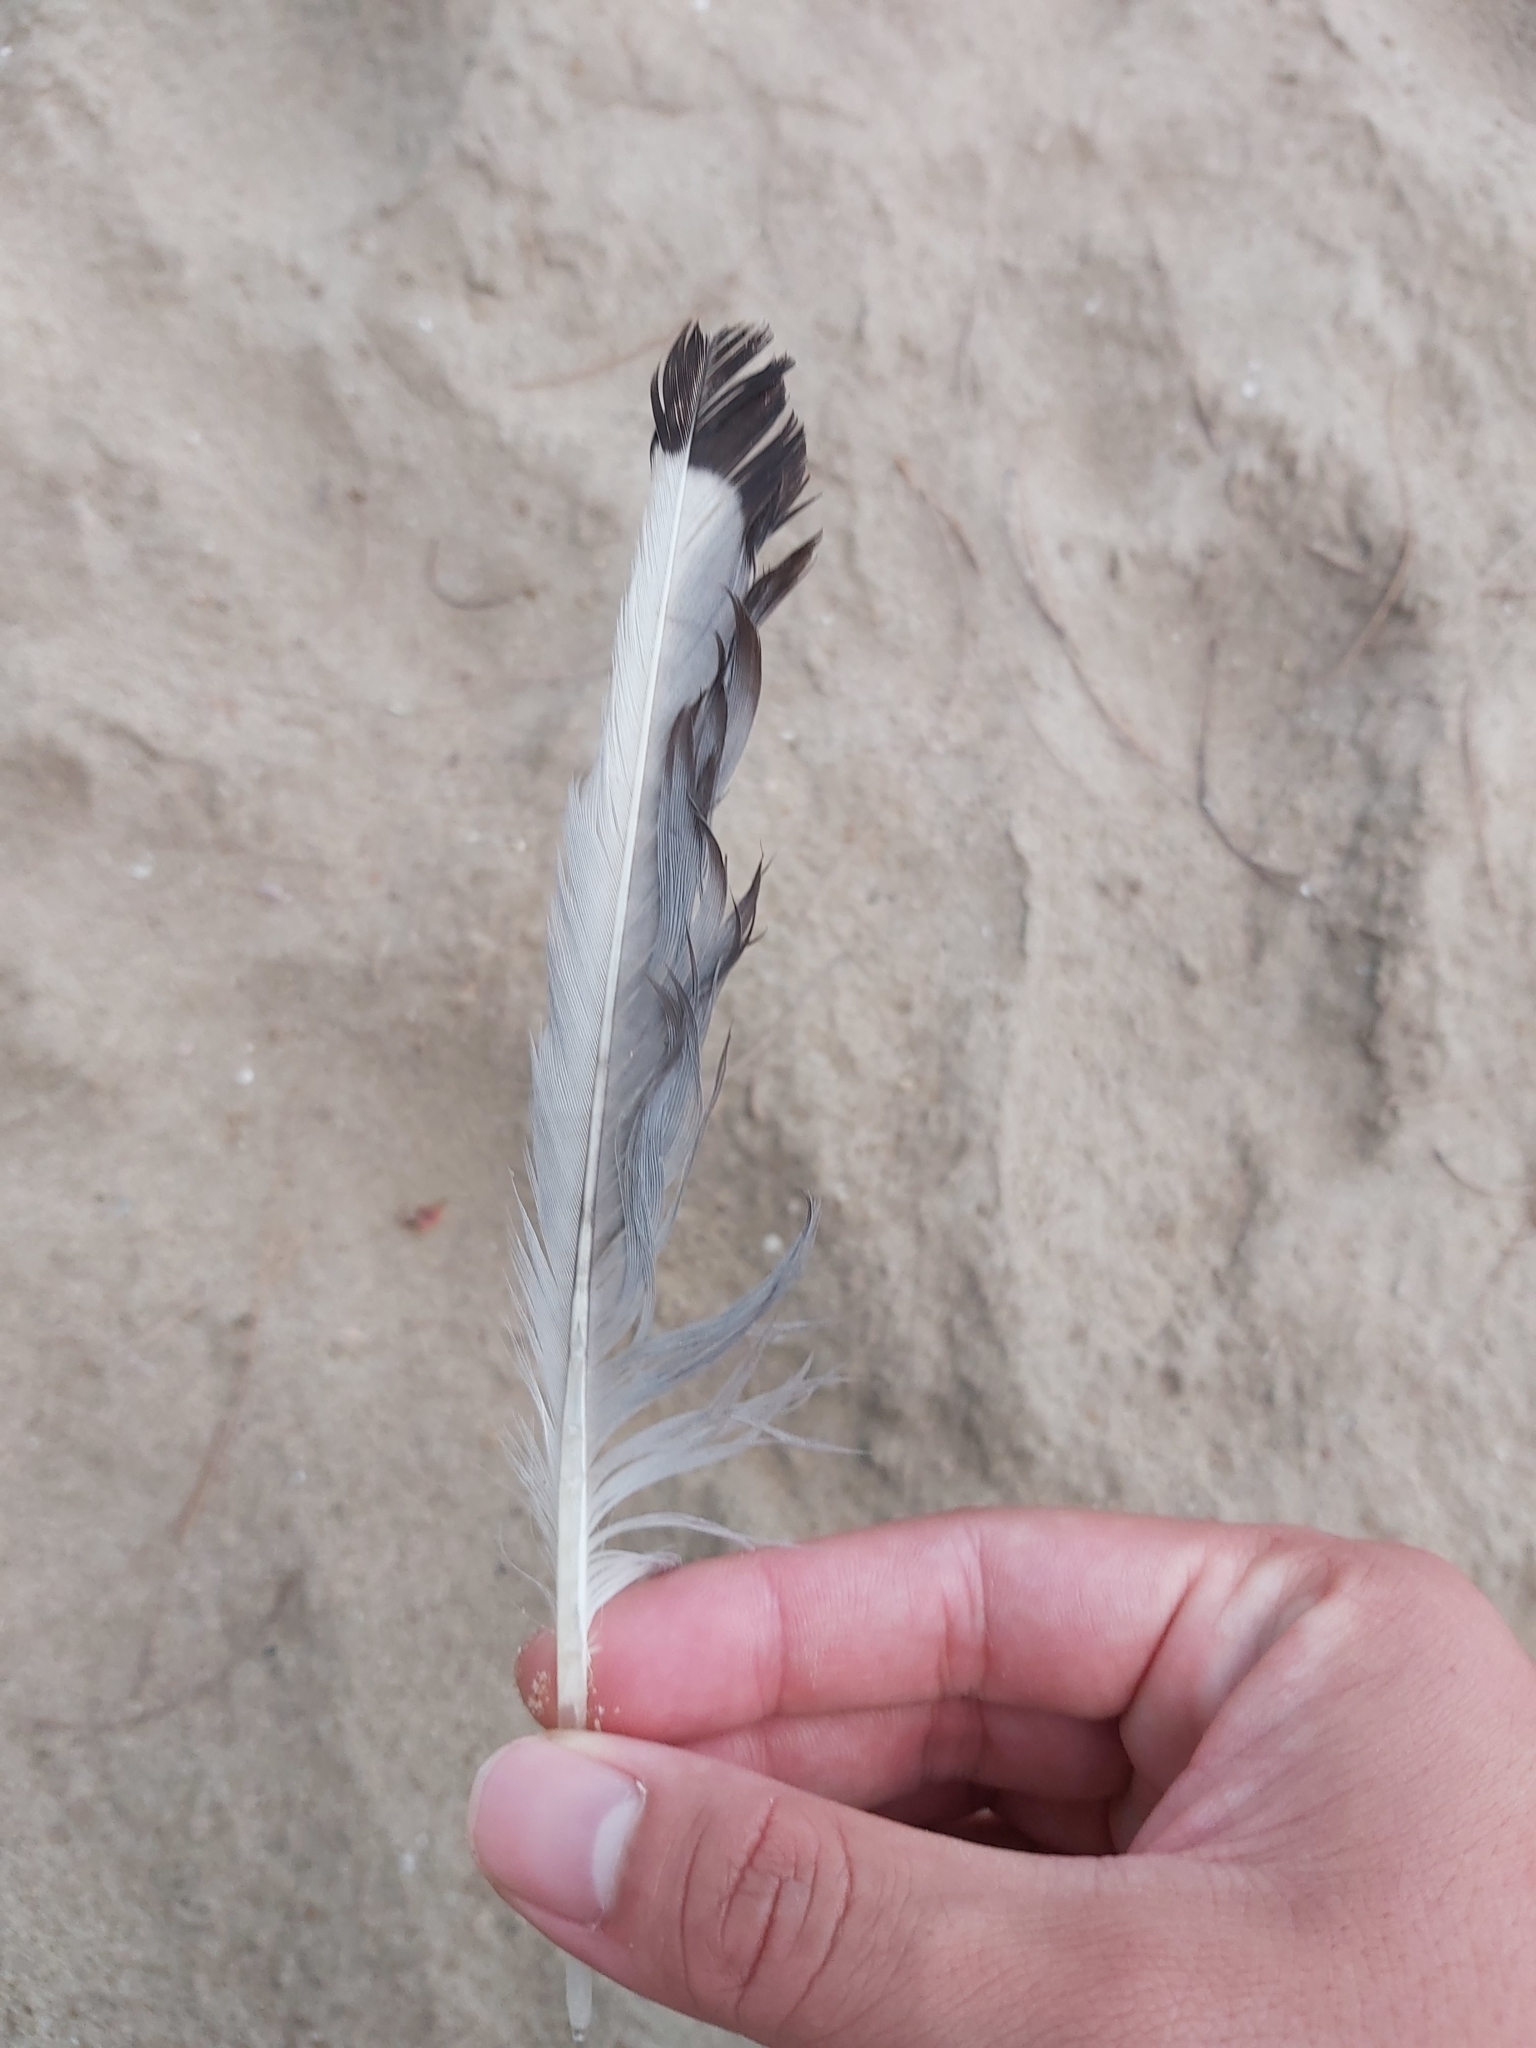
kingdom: Animalia
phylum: Chordata
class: Aves
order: Charadriiformes
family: Laridae
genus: Chroicocephalus
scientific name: Chroicocephalus novaehollandiae
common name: Silver gull
